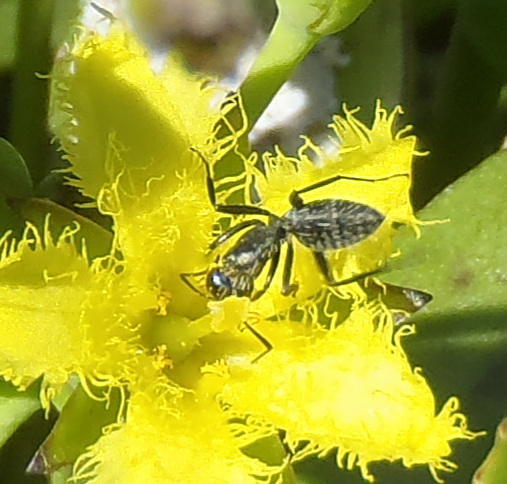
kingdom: Animalia
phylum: Arthropoda
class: Insecta
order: Hymenoptera
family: Formicidae
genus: Camponotus
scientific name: Camponotus niveosetosus
